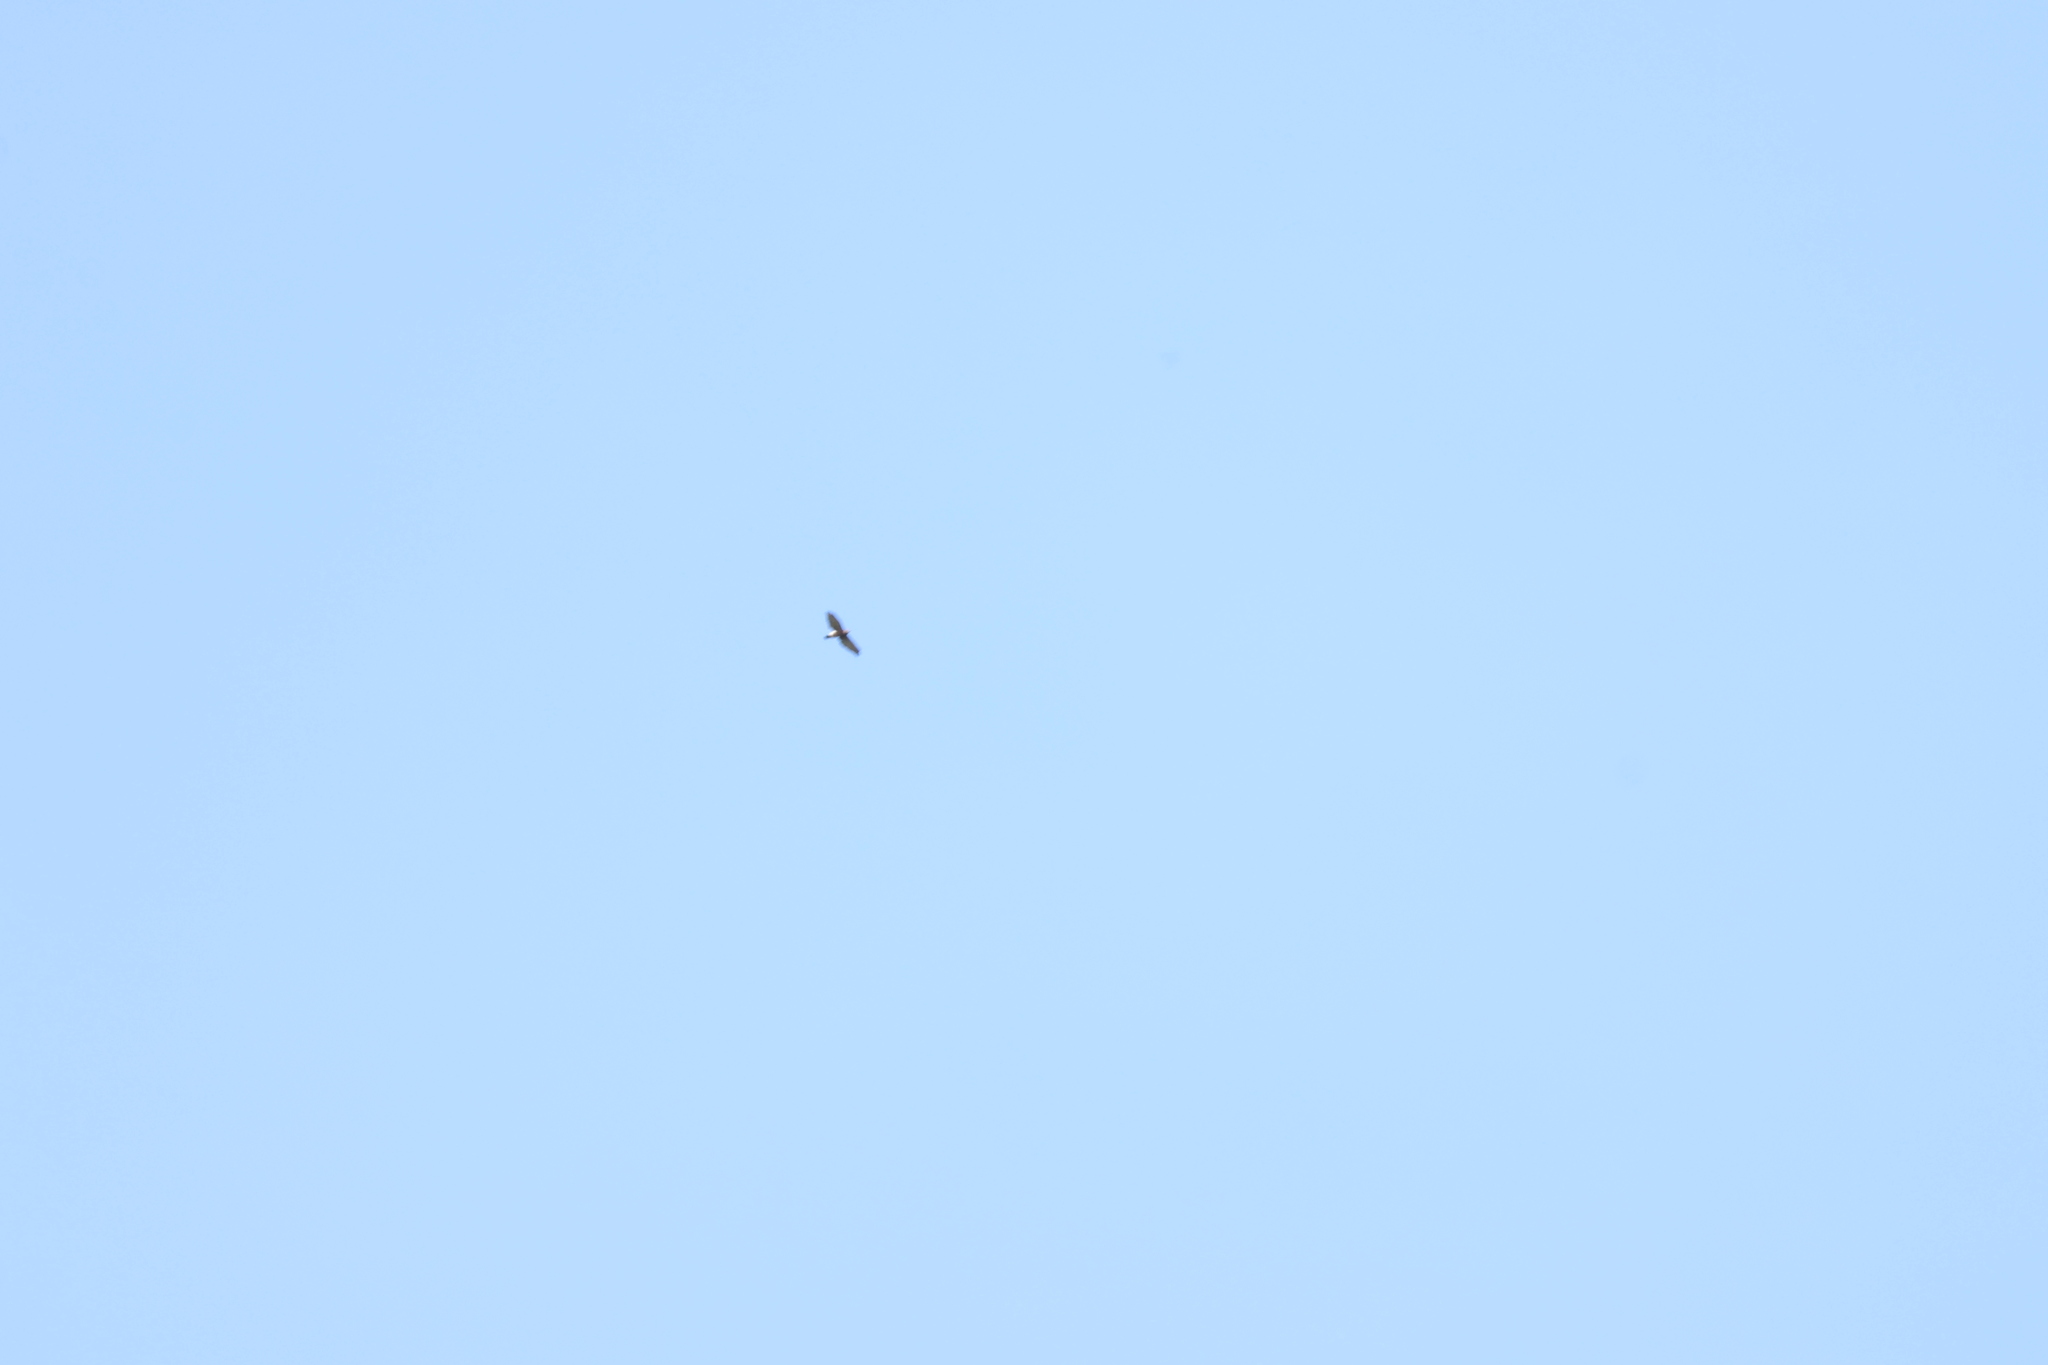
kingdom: Animalia
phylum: Chordata
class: Aves
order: Accipitriformes
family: Accipitridae
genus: Harpagus
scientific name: Harpagus bidentatus
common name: Double-toothed kite
